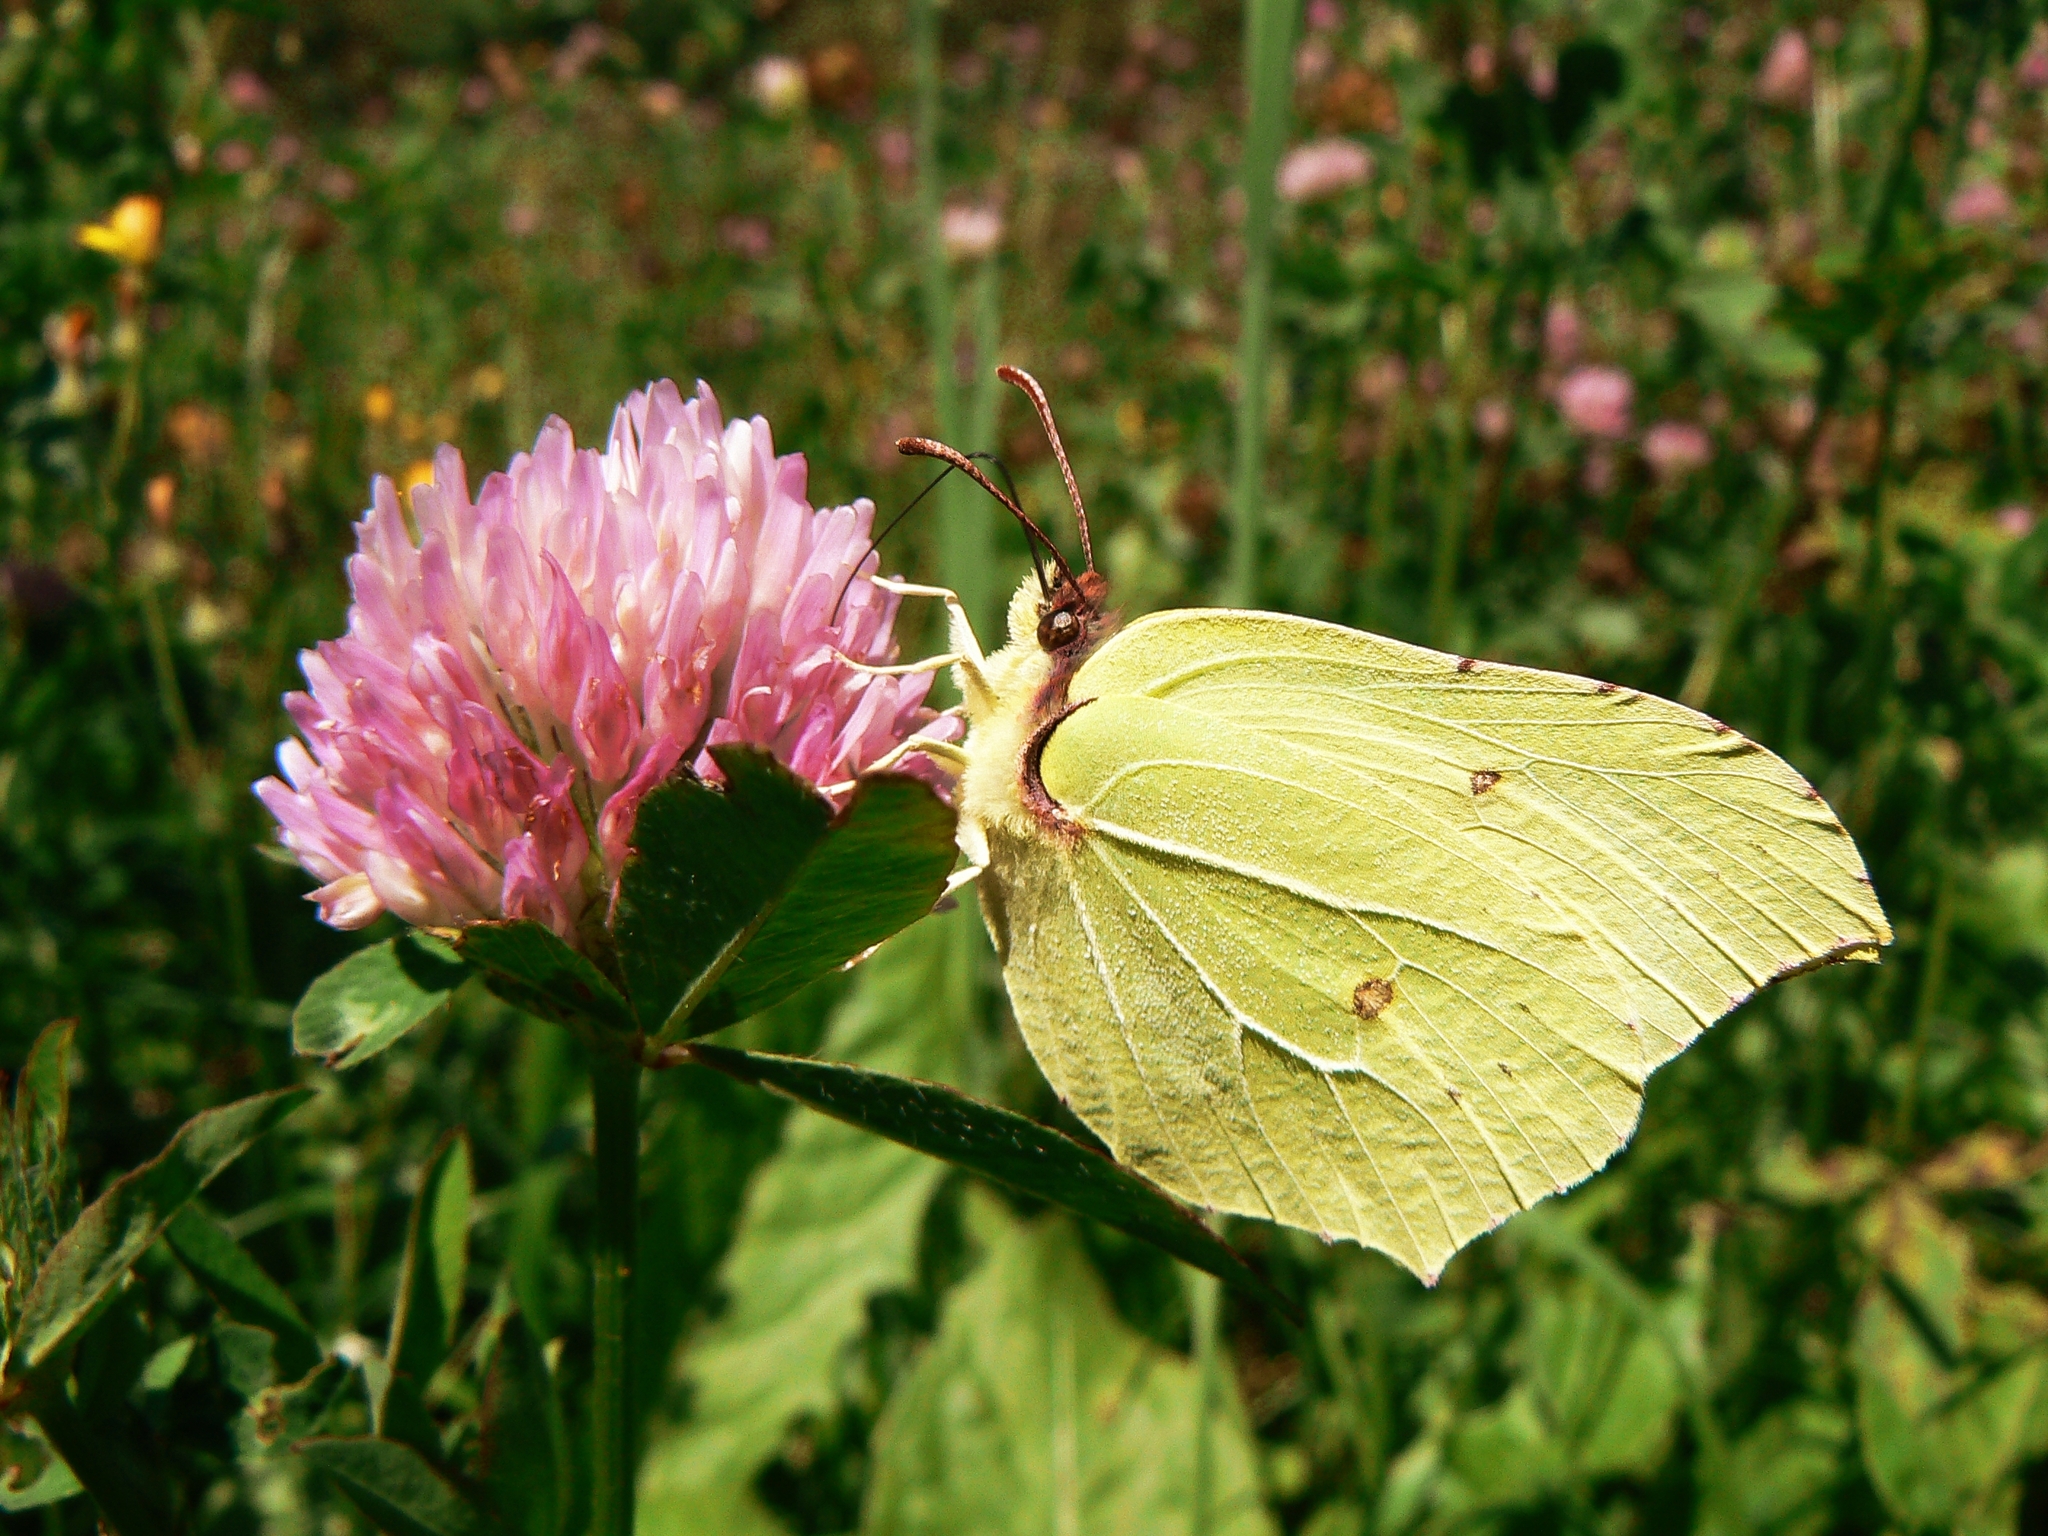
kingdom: Animalia
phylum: Arthropoda
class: Insecta
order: Lepidoptera
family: Pieridae
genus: Gonepteryx
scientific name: Gonepteryx rhamni
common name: Brimstone
